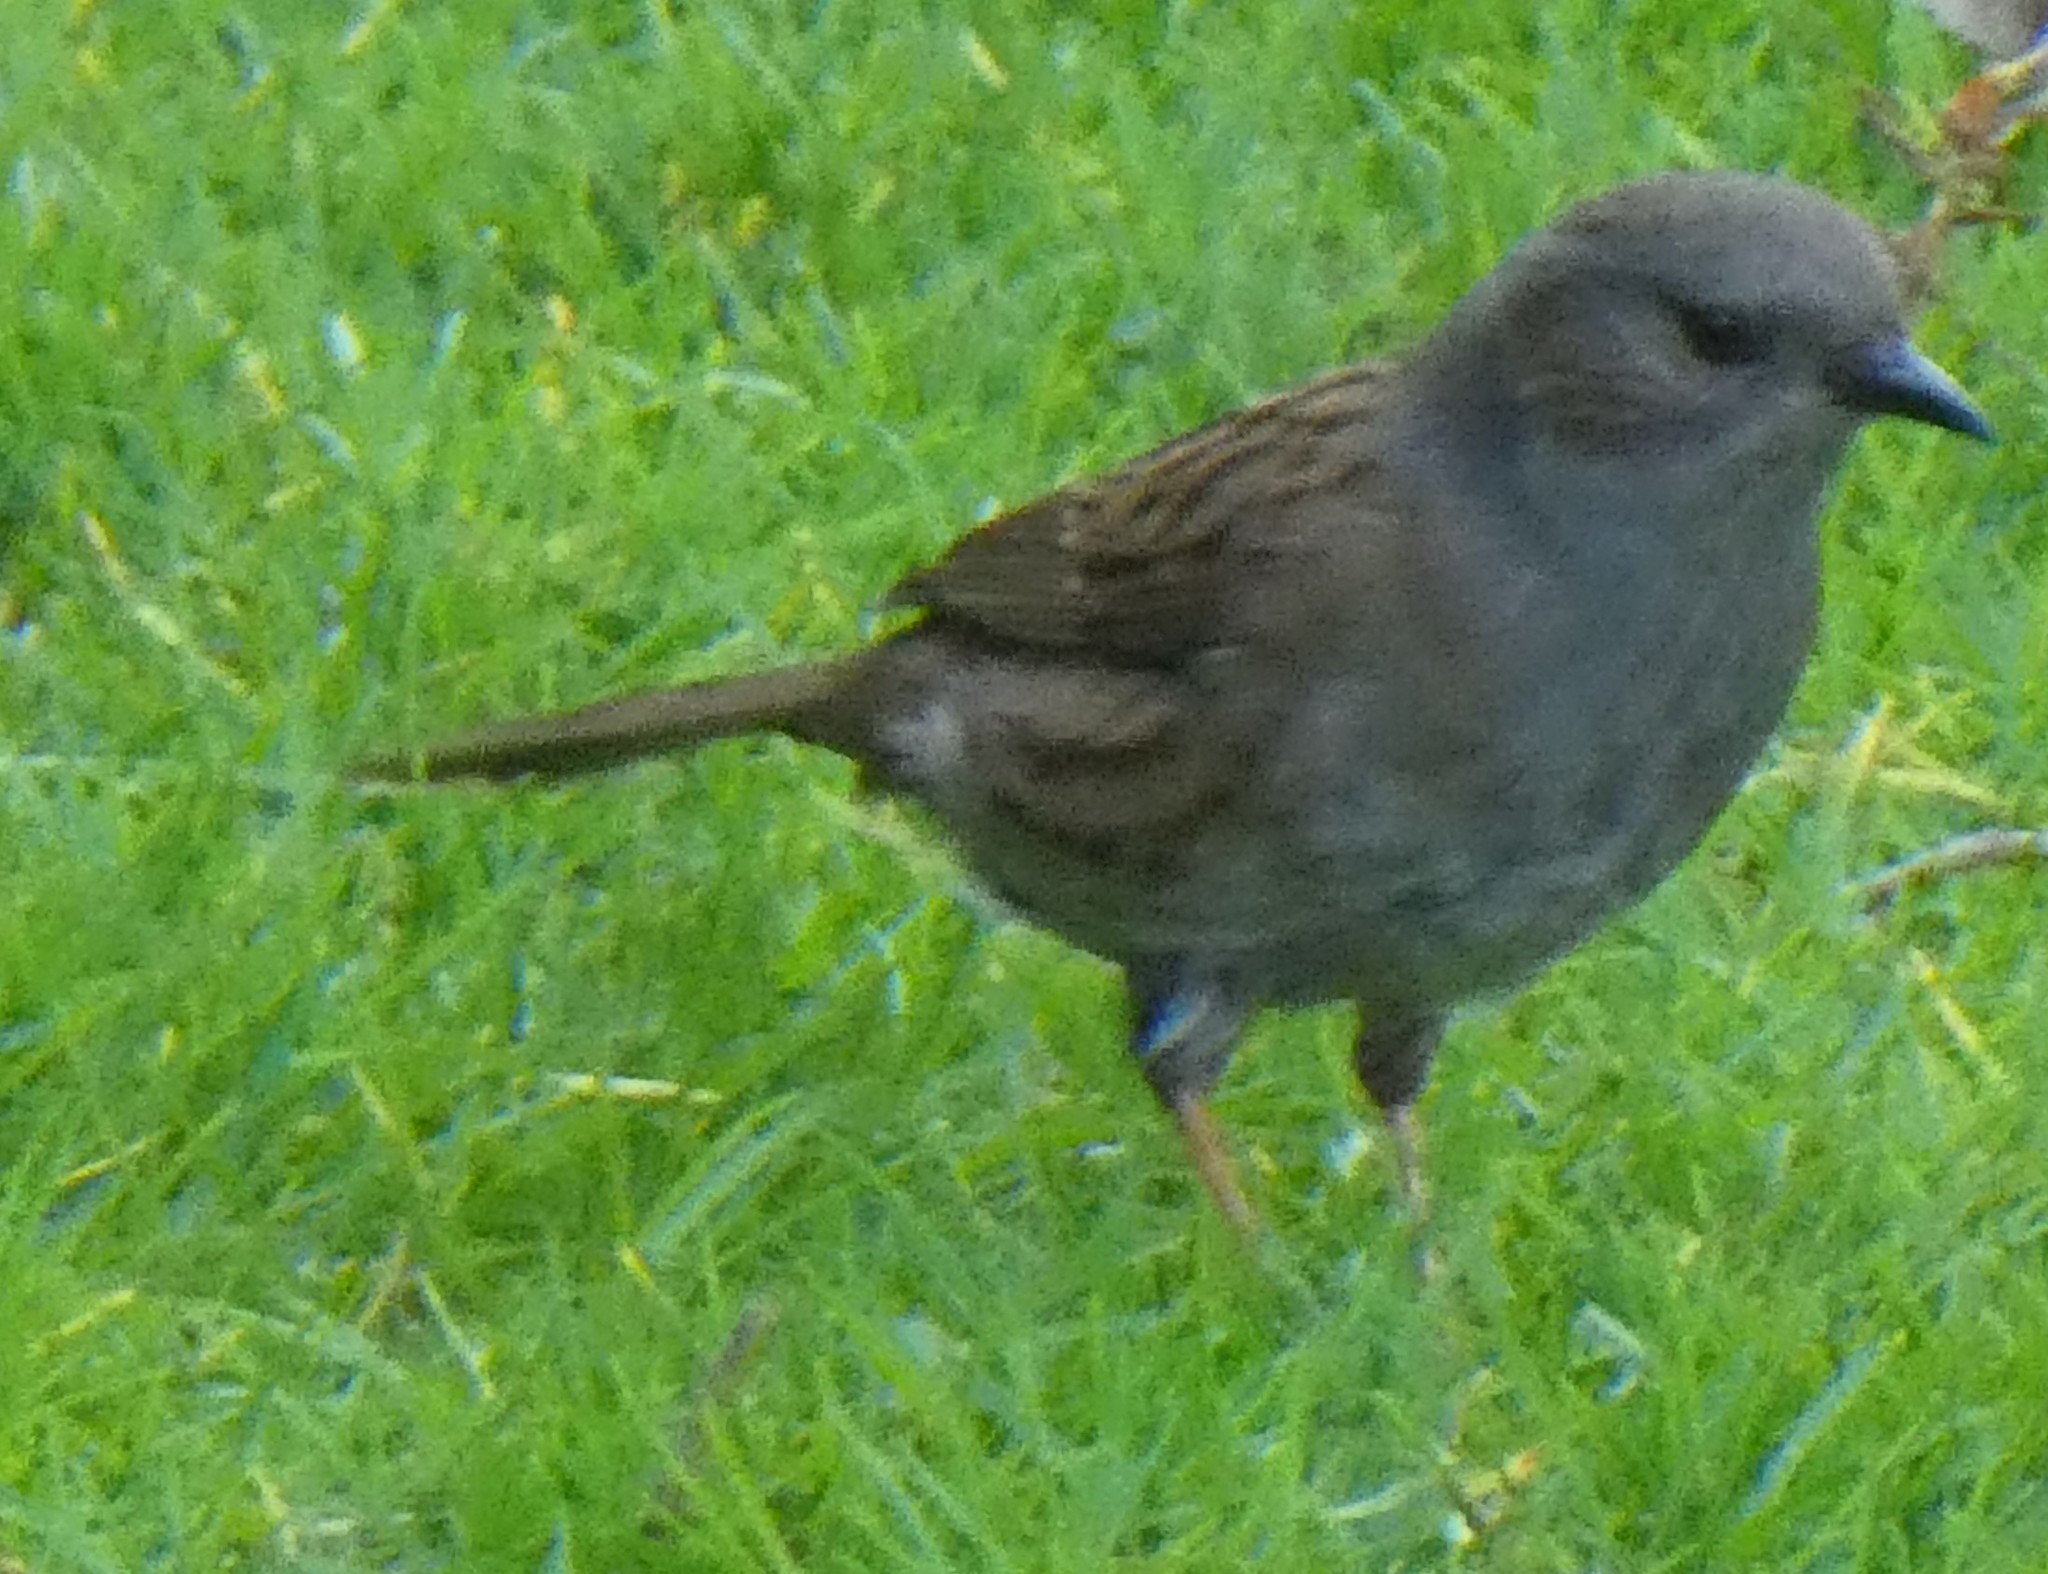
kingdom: Animalia
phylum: Chordata
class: Aves
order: Passeriformes
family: Prunellidae
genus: Prunella
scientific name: Prunella modularis
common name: Dunnock
